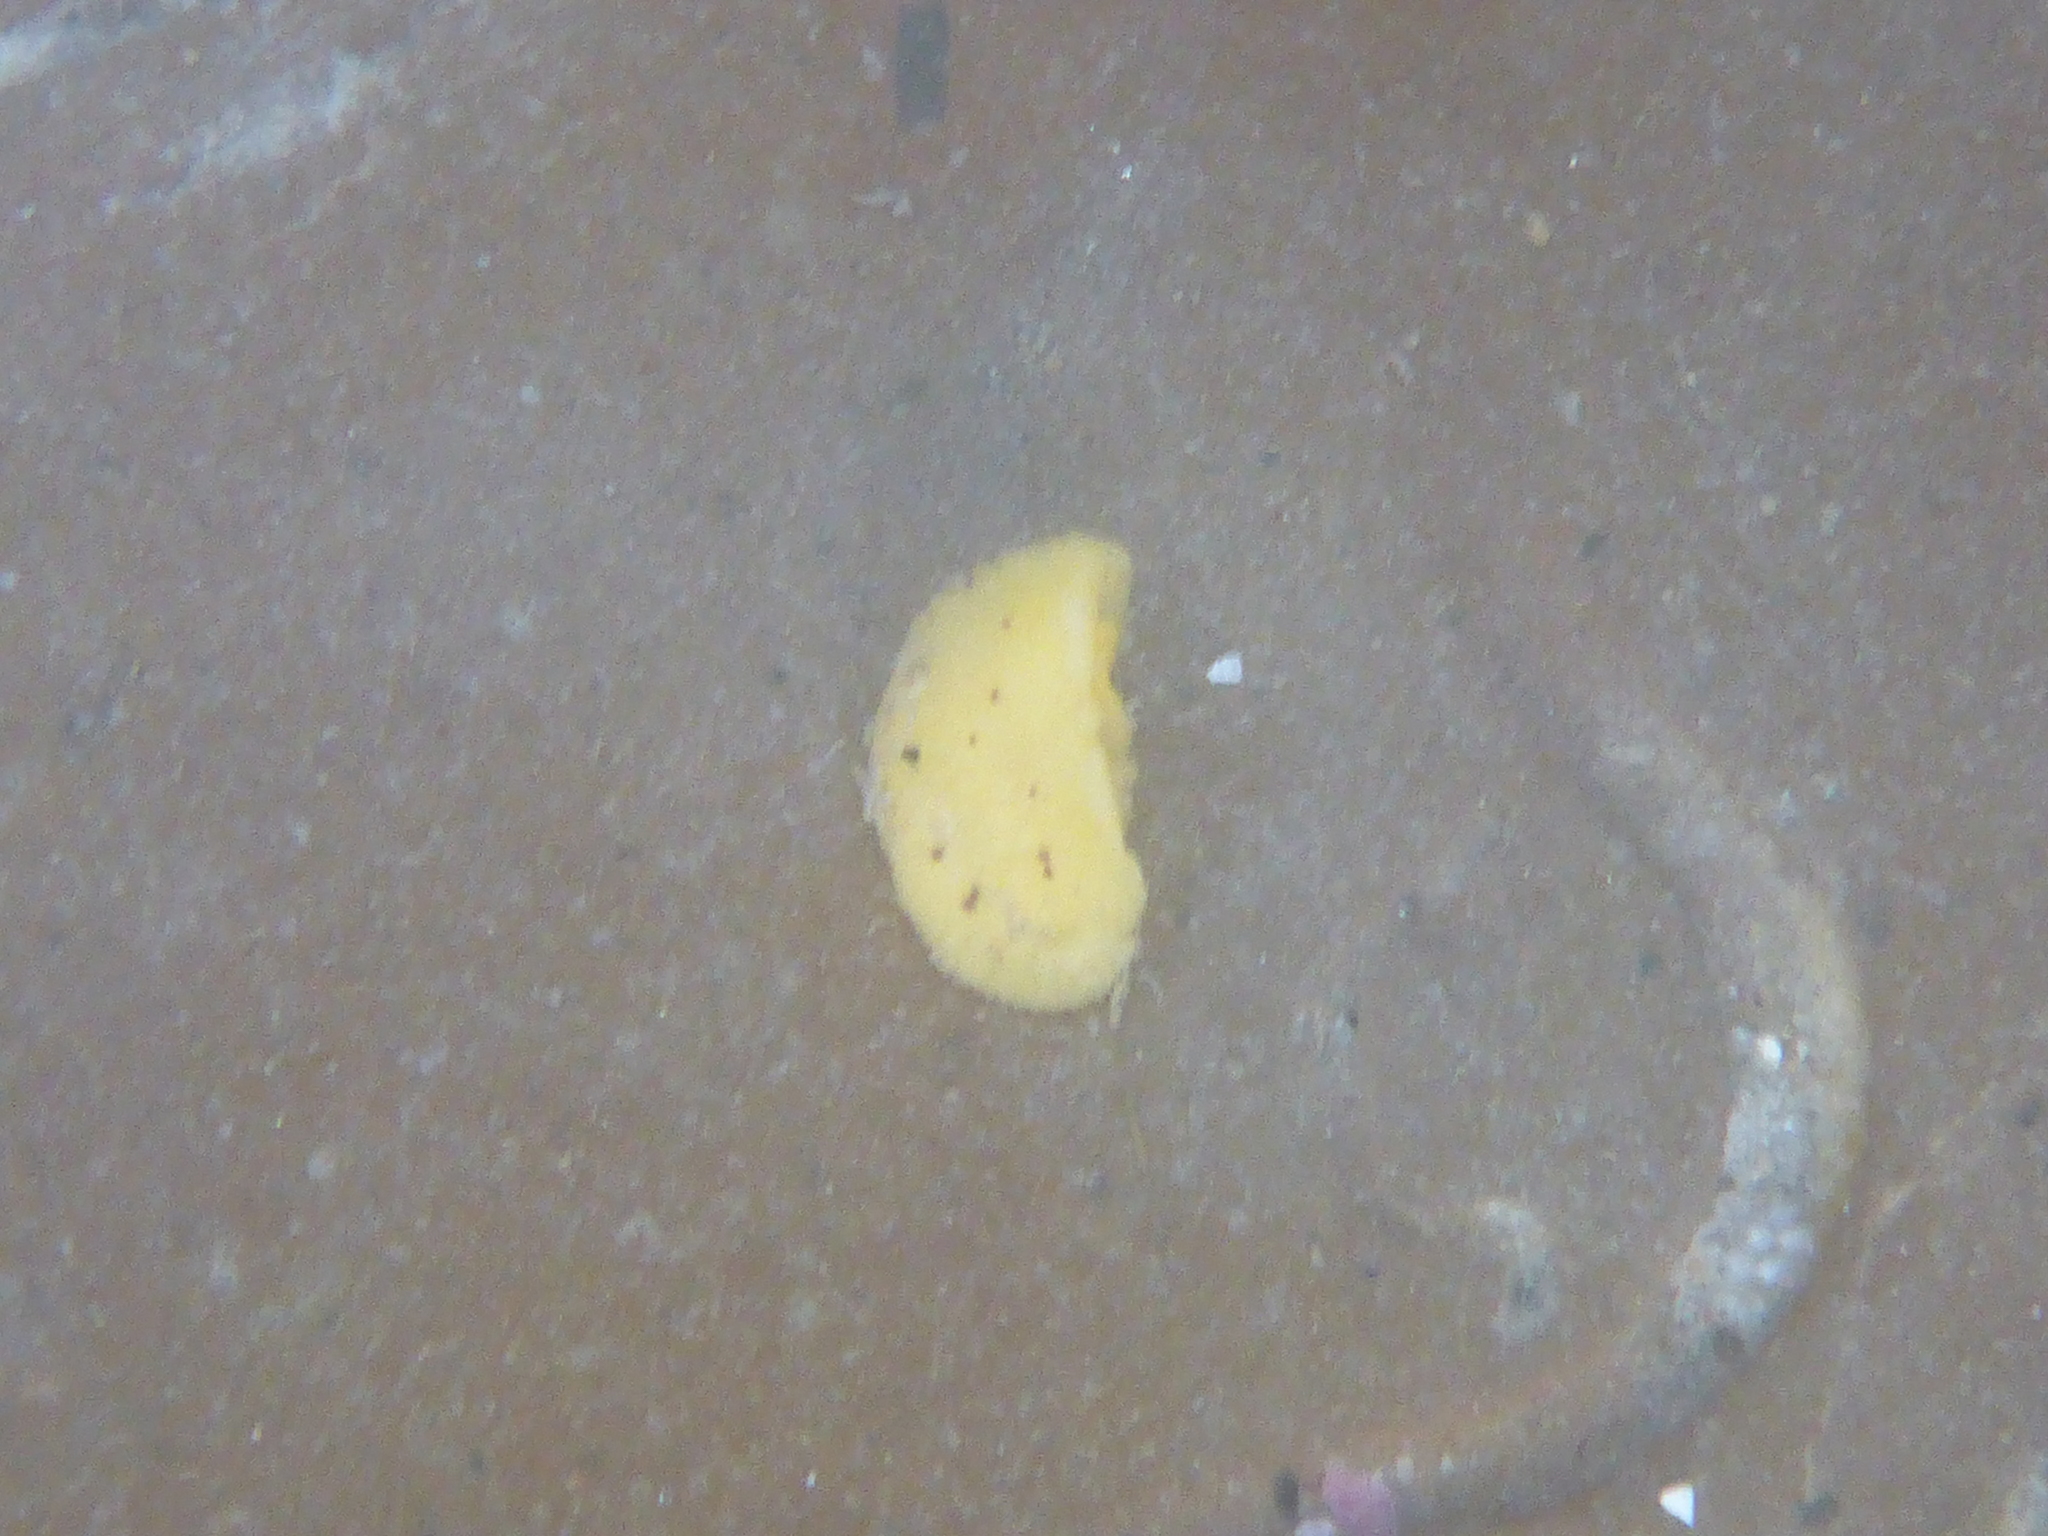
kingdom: Animalia
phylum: Mollusca
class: Gastropoda
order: Nudibranchia
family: Dorididae
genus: Doris
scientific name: Doris montereyensis
